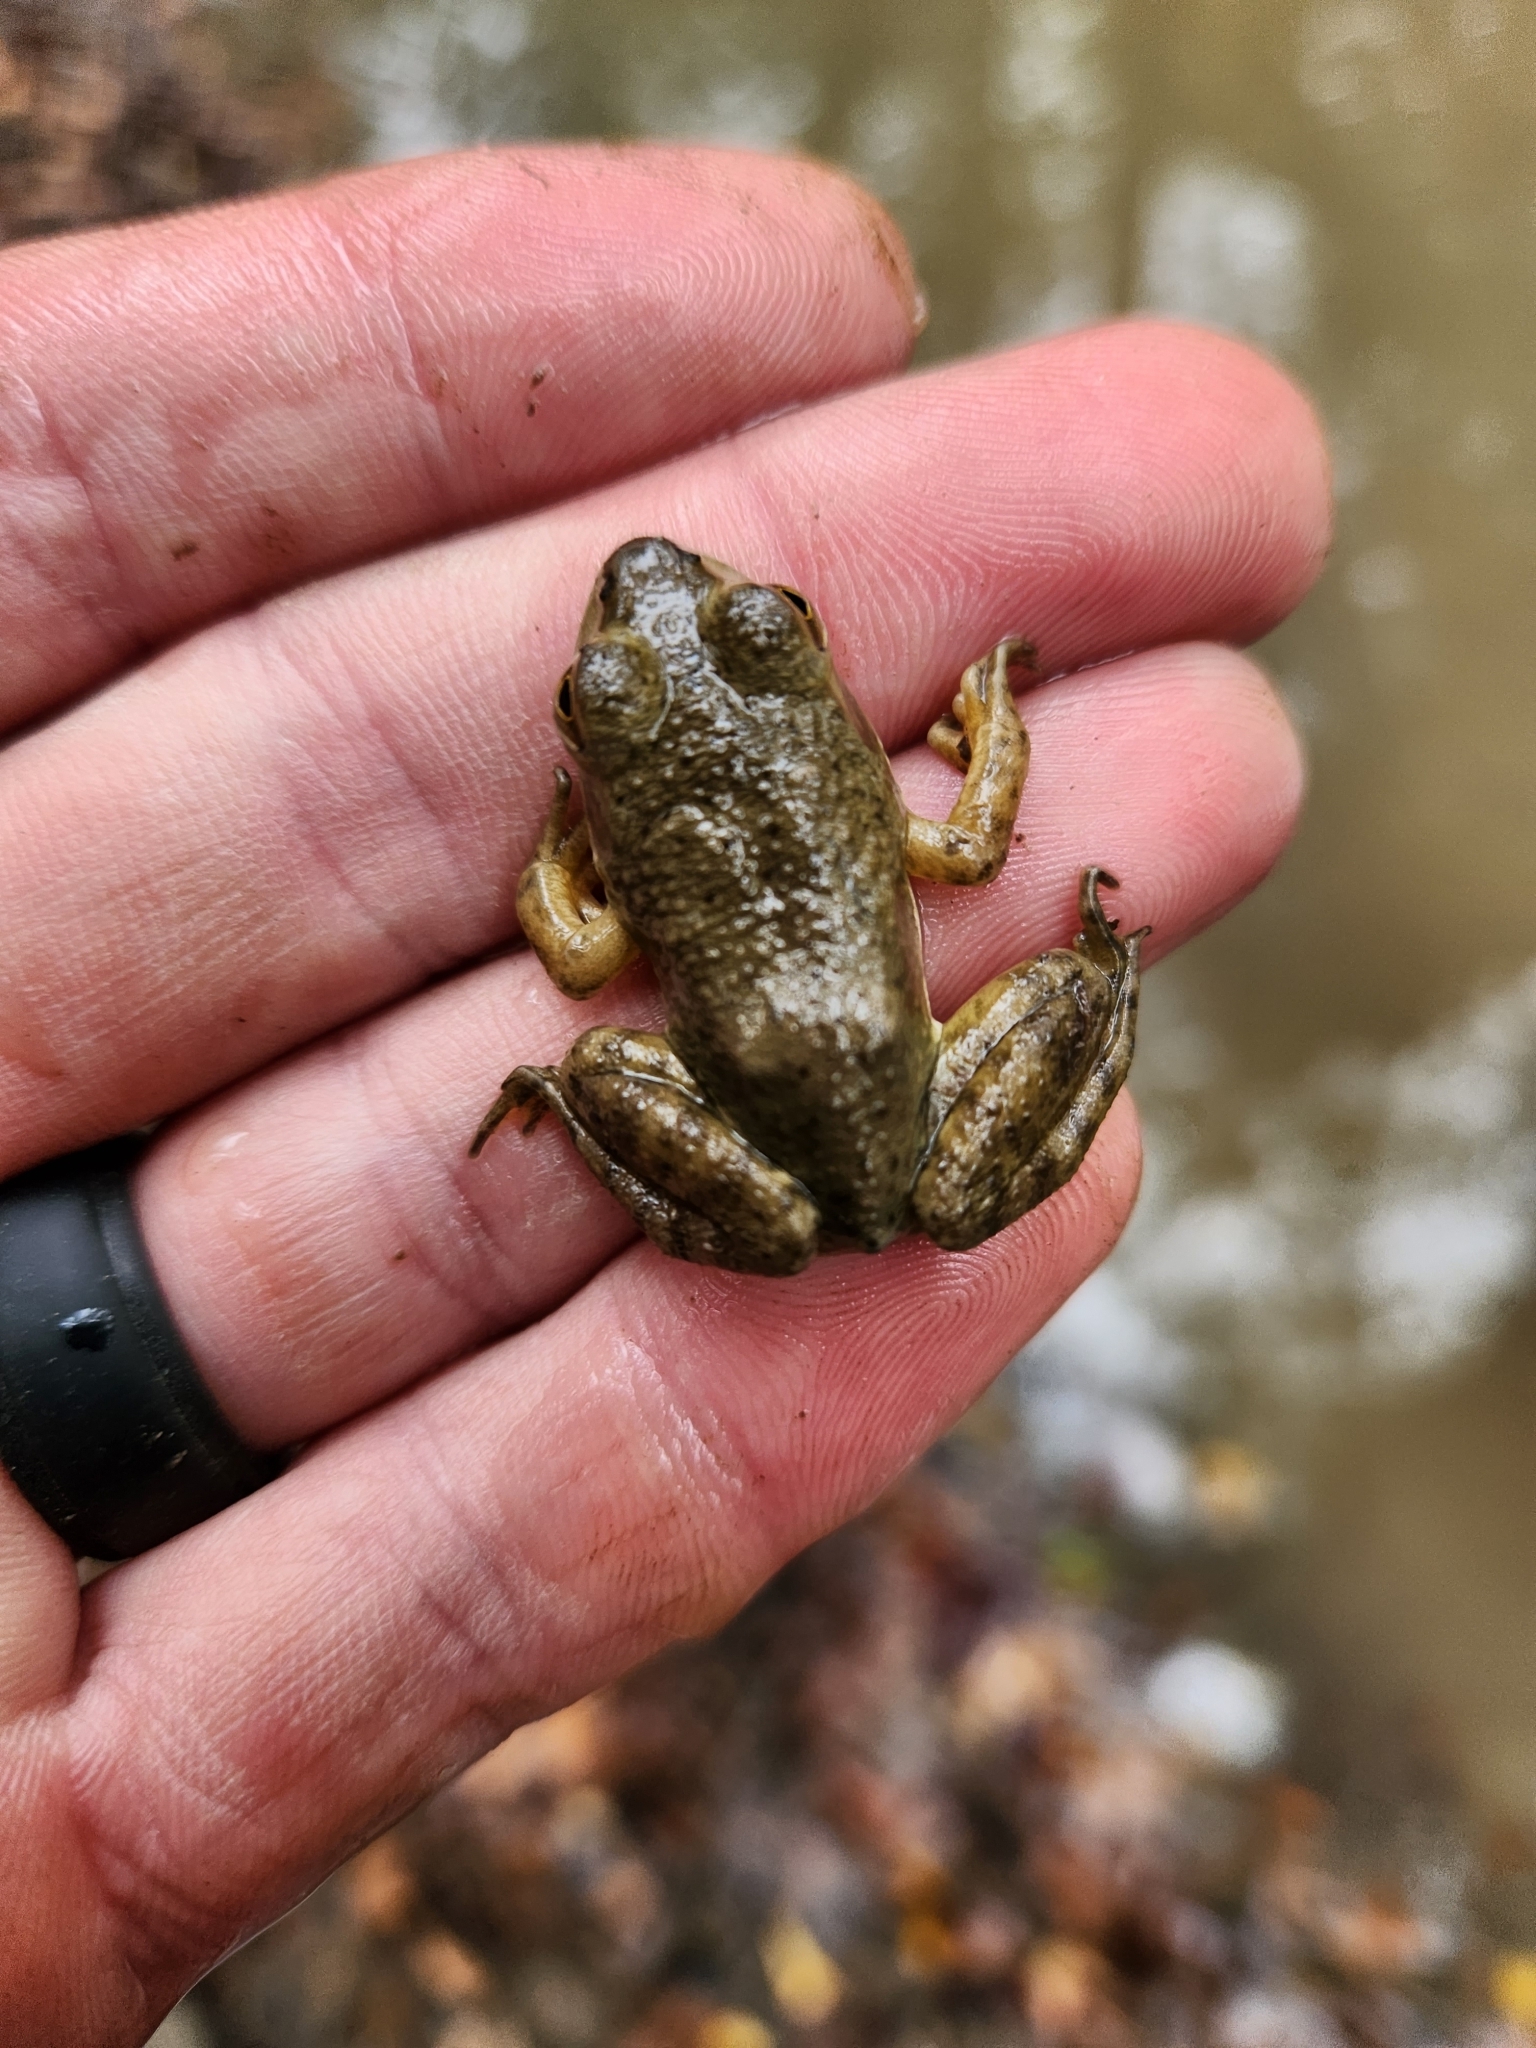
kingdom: Animalia
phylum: Chordata
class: Amphibia
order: Anura
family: Ranidae
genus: Lithobates
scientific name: Lithobates catesbeianus
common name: American bullfrog
